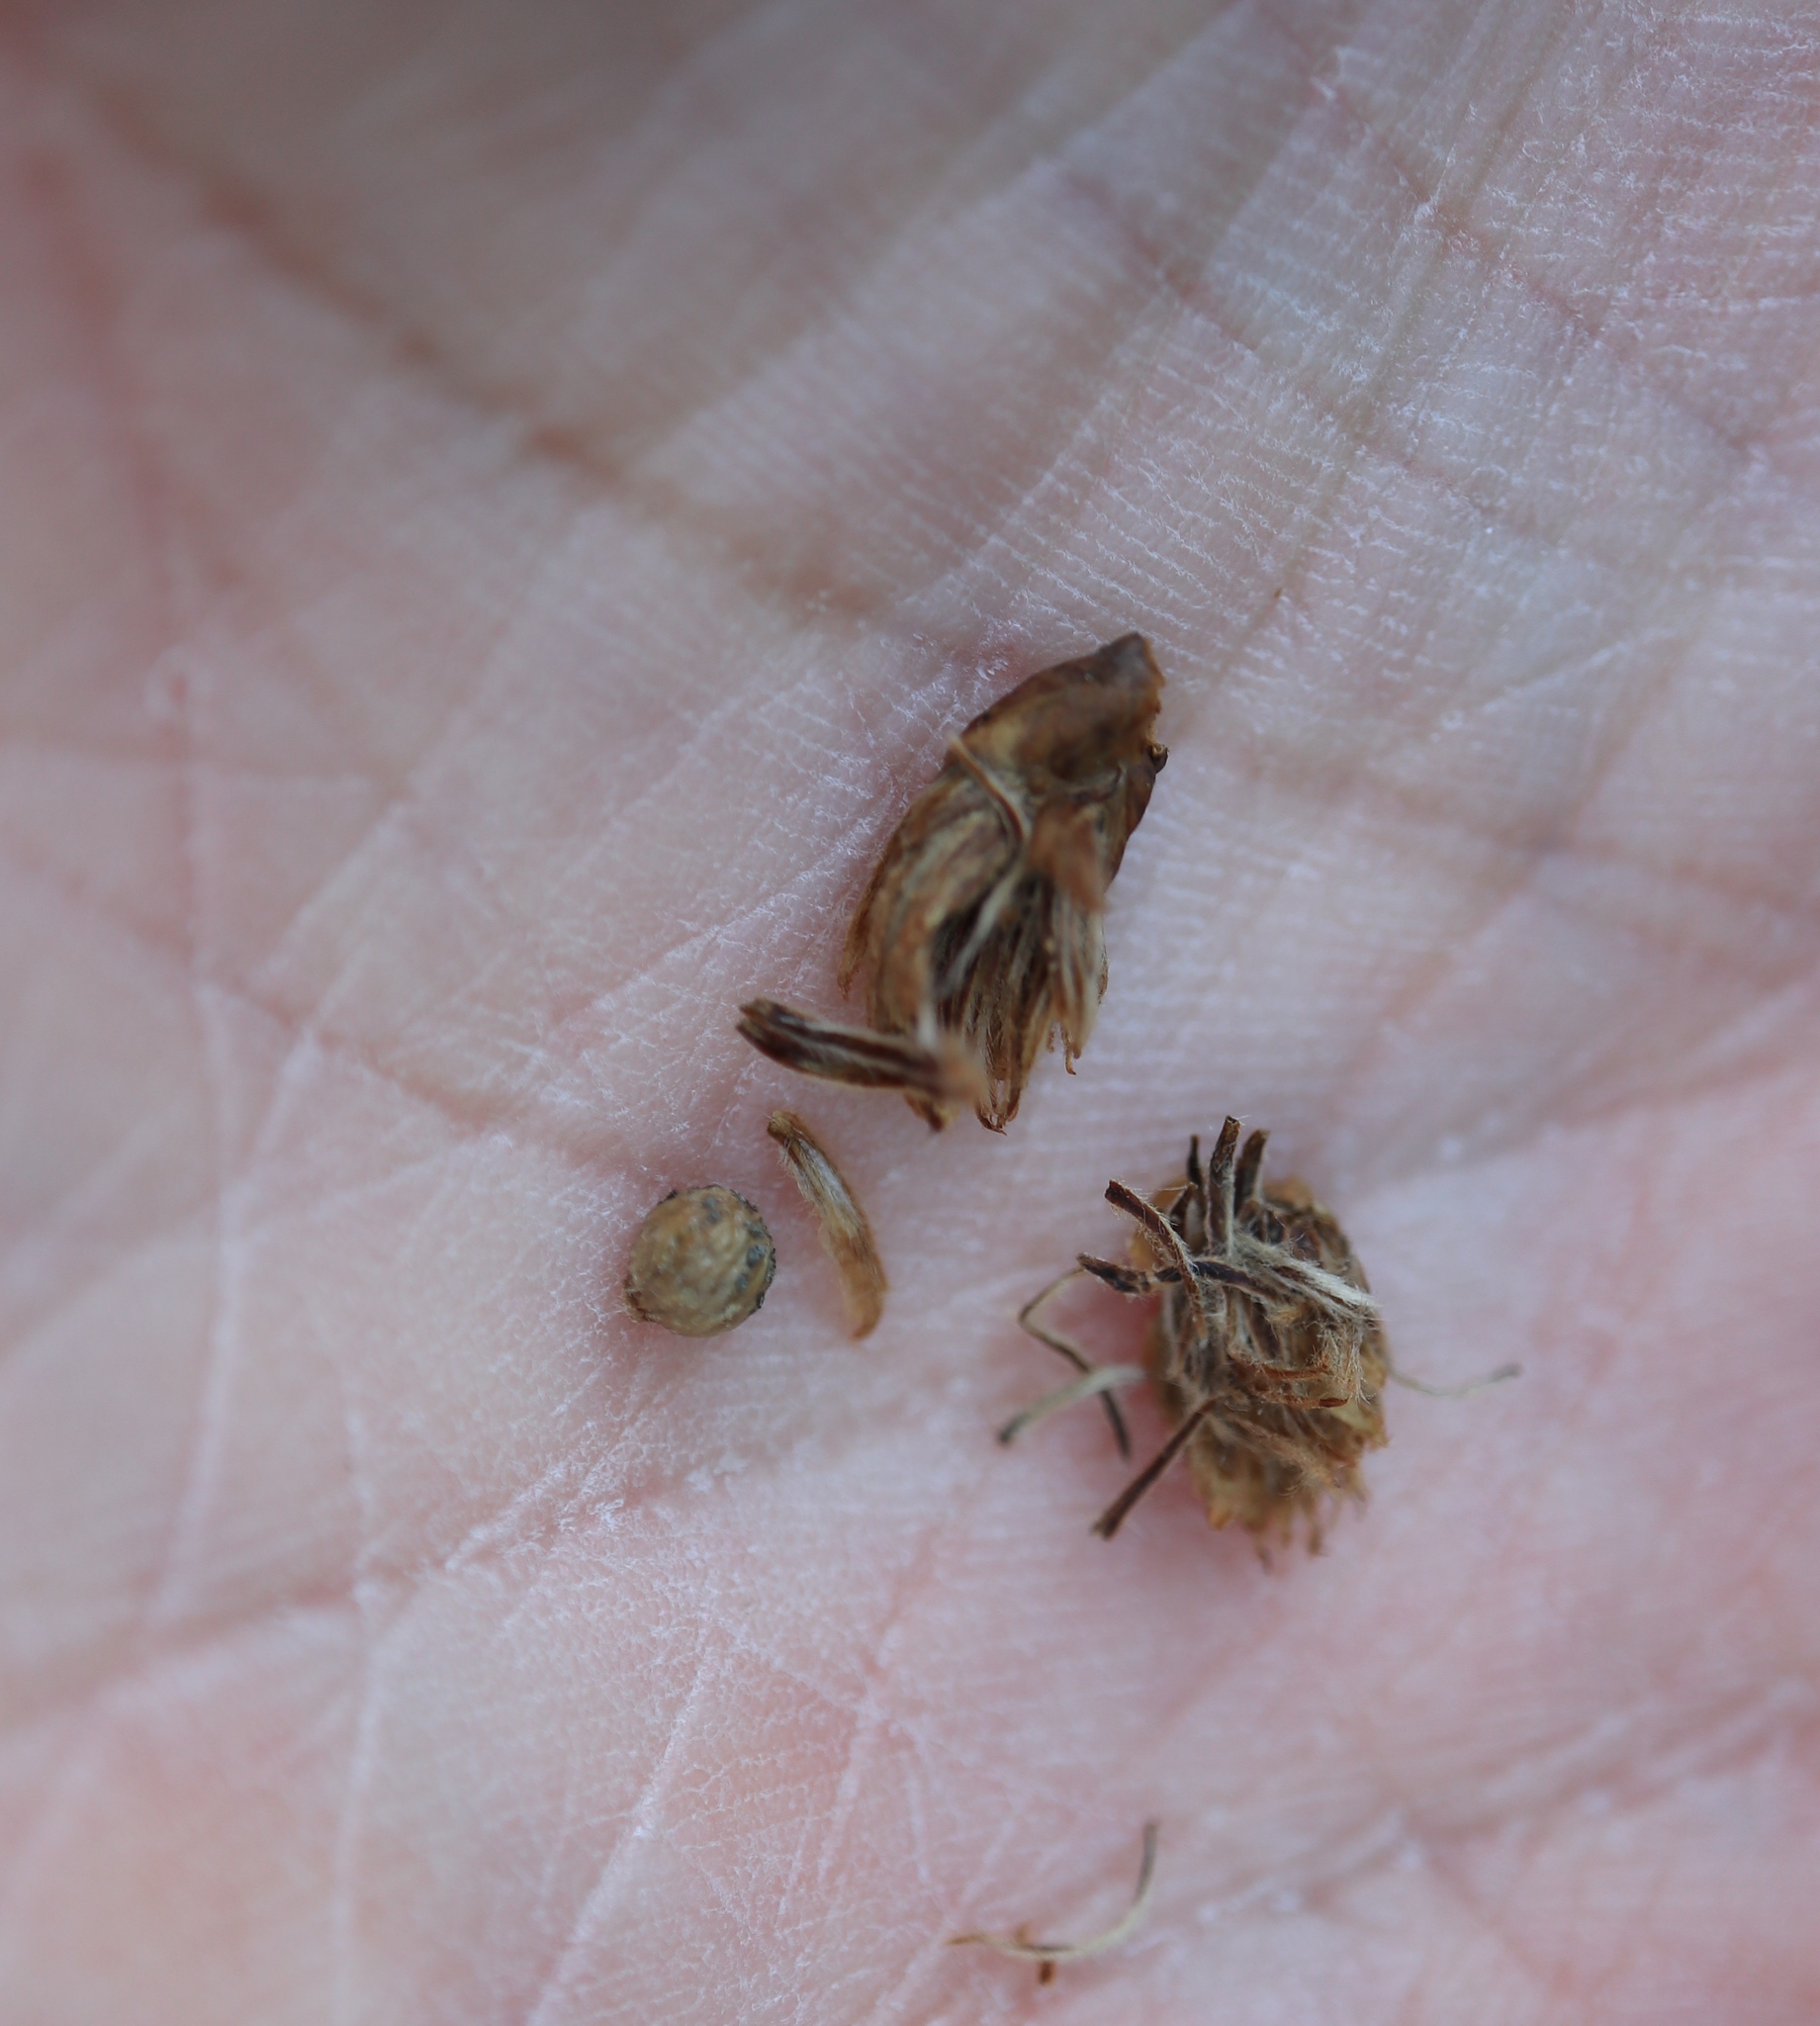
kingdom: Animalia
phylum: Arthropoda
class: Insecta
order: Hymenoptera
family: Cynipidae
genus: Andricus
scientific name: Andricus
